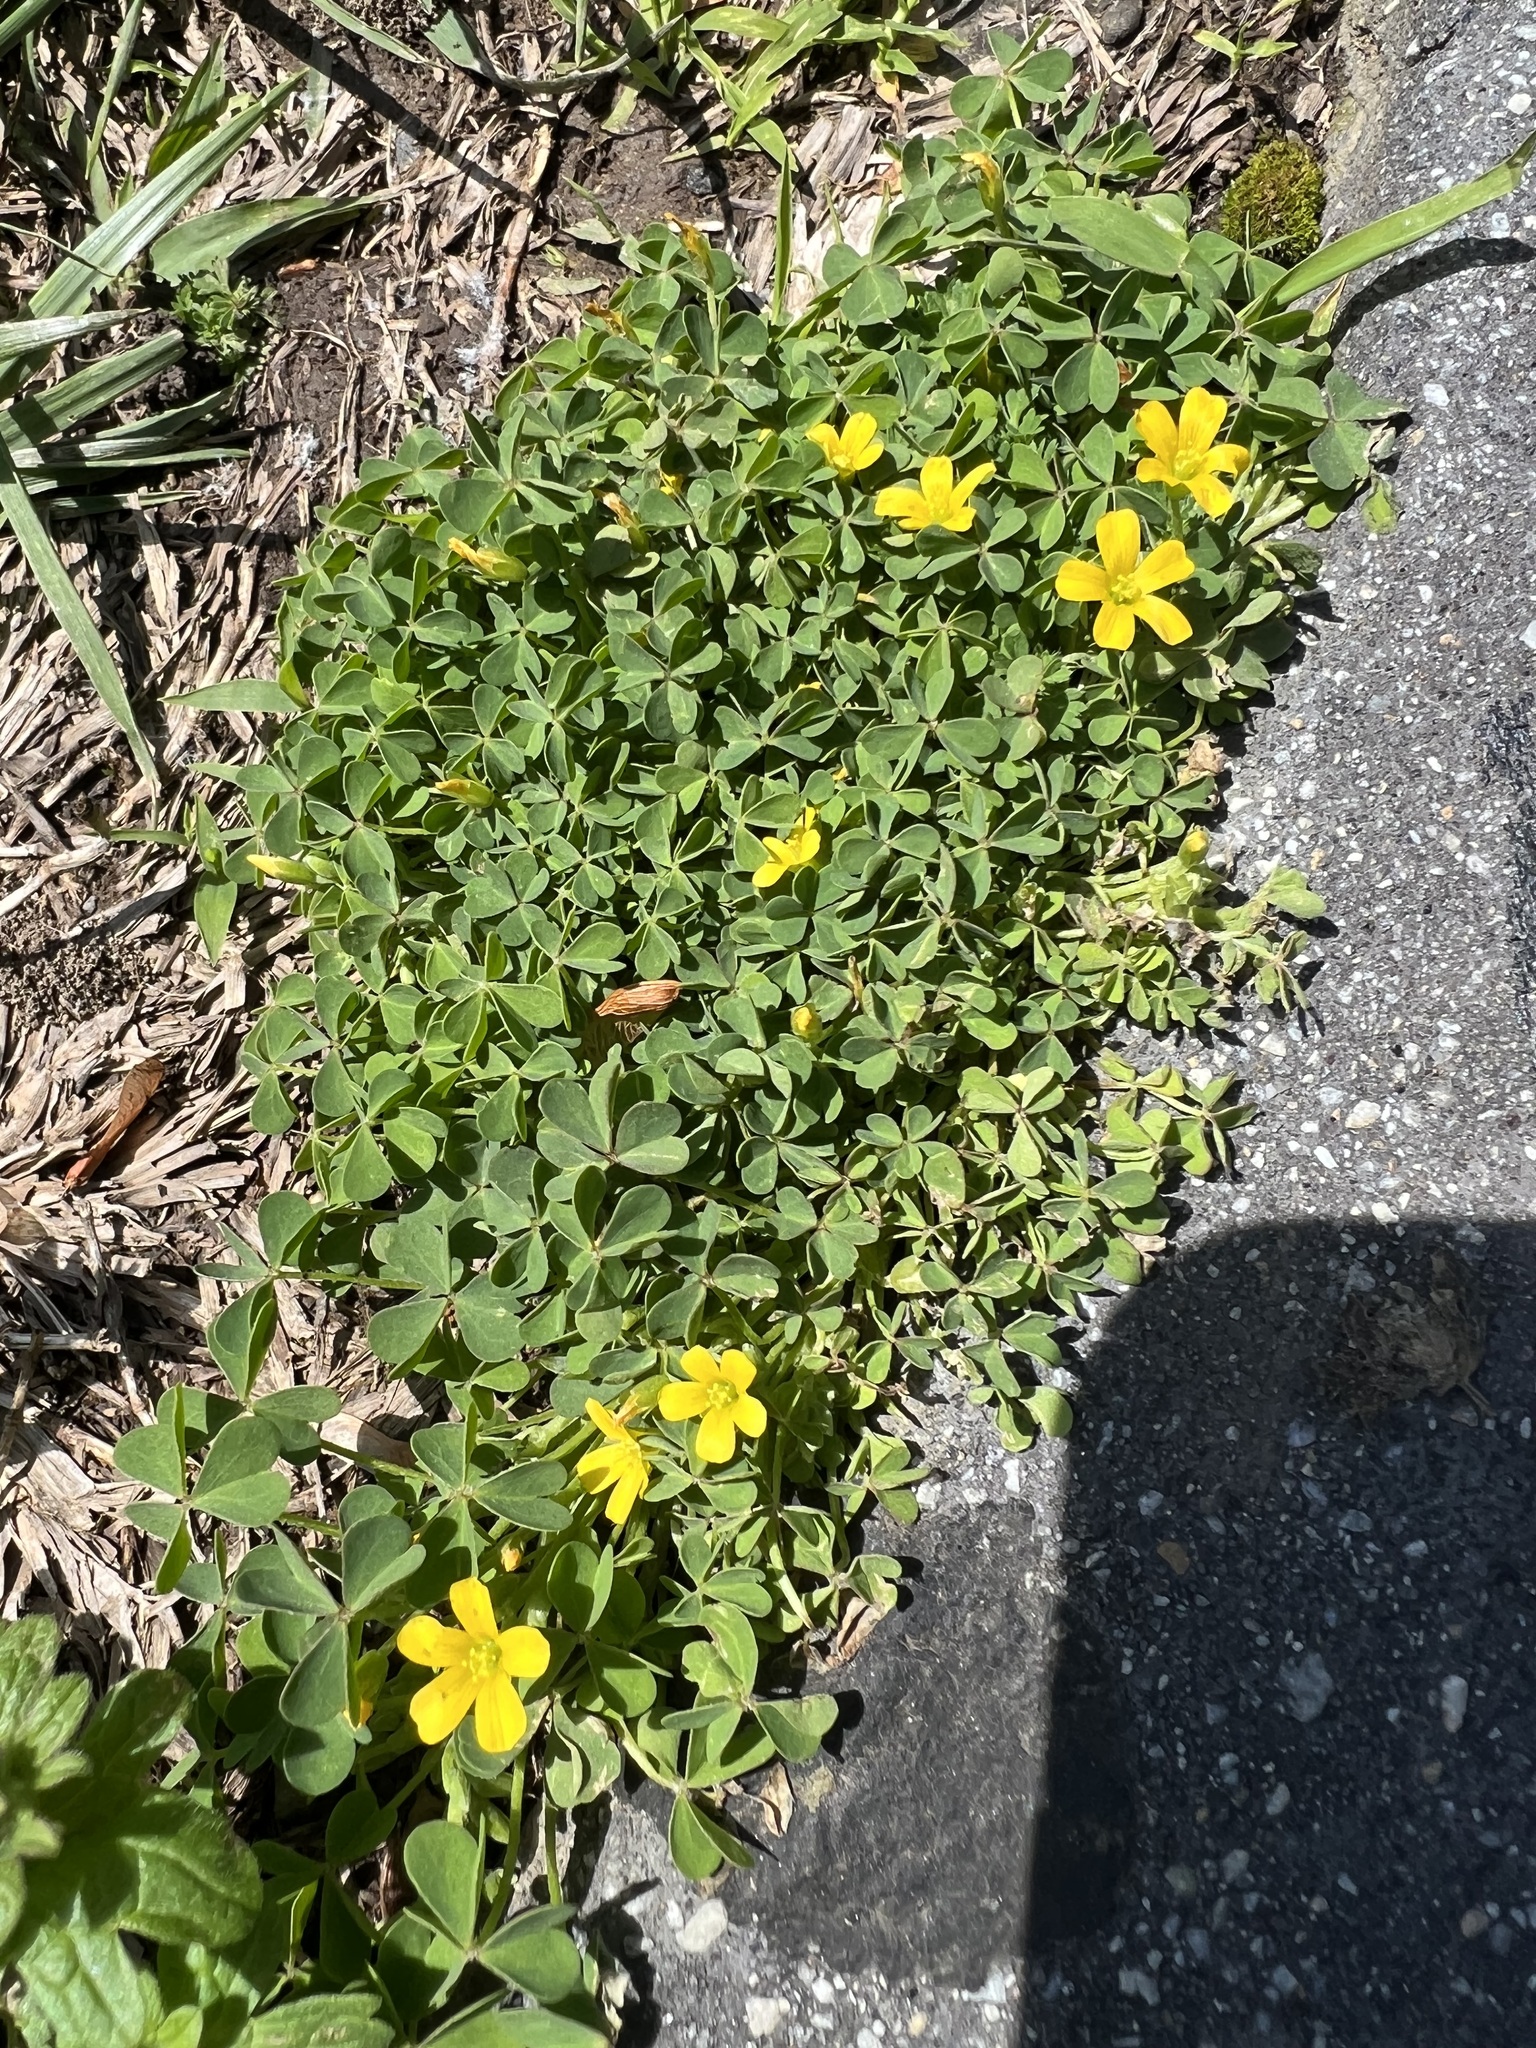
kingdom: Plantae
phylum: Tracheophyta
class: Magnoliopsida
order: Oxalidales
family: Oxalidaceae
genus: Oxalis
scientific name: Oxalis corniculata
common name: Procumbent yellow-sorrel
